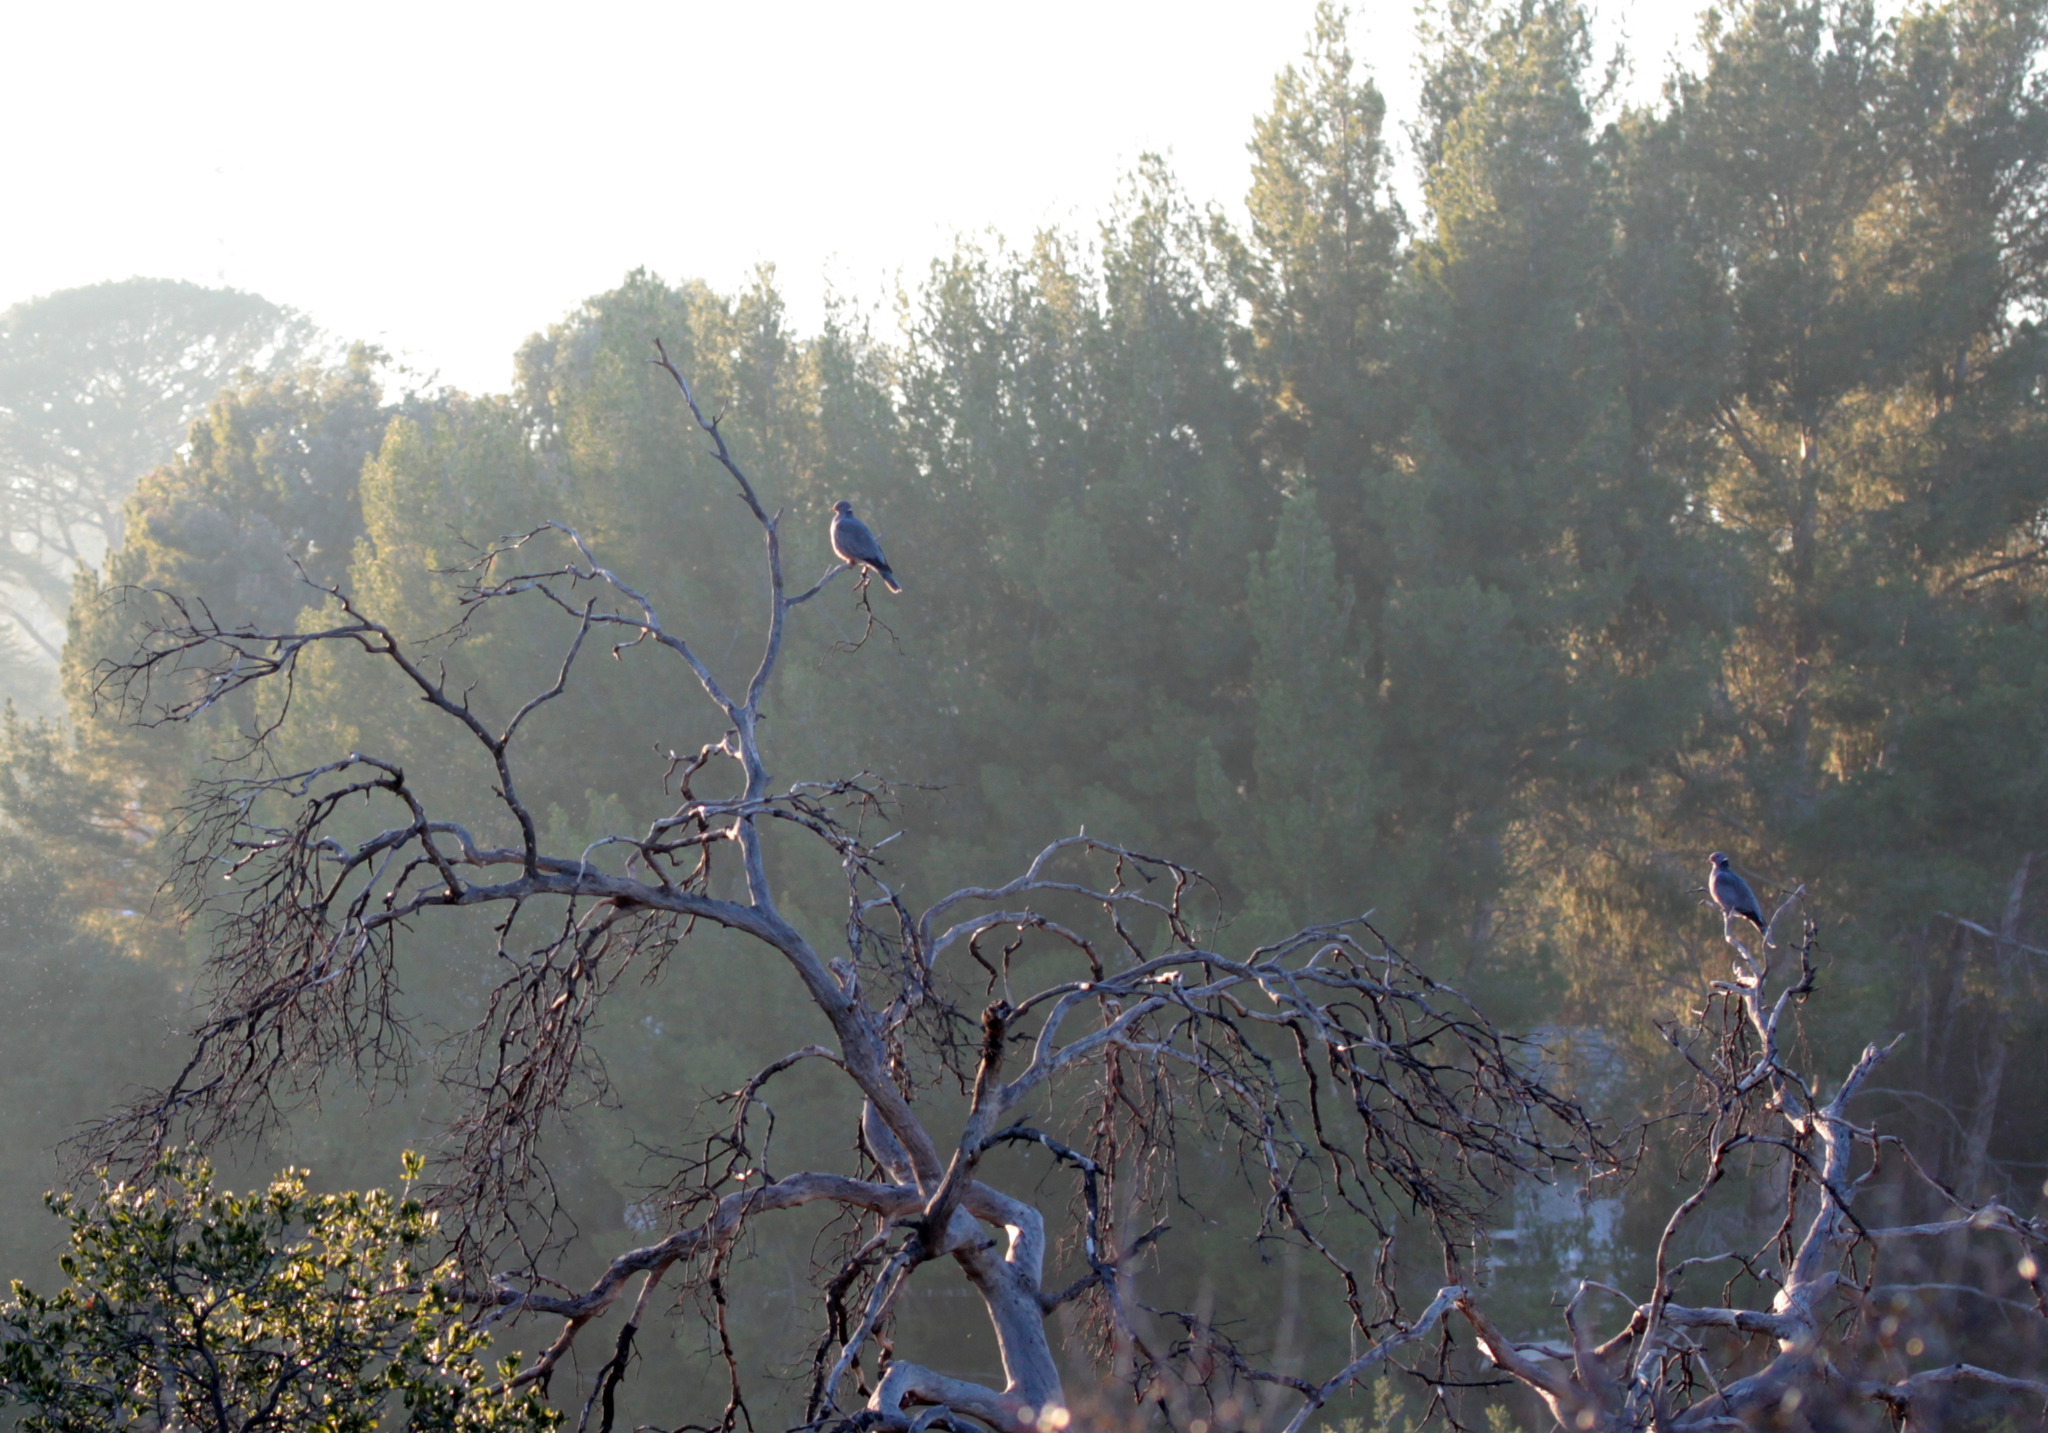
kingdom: Animalia
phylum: Chordata
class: Aves
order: Columbiformes
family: Columbidae
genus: Patagioenas
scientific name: Patagioenas fasciata
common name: Band-tailed pigeon
